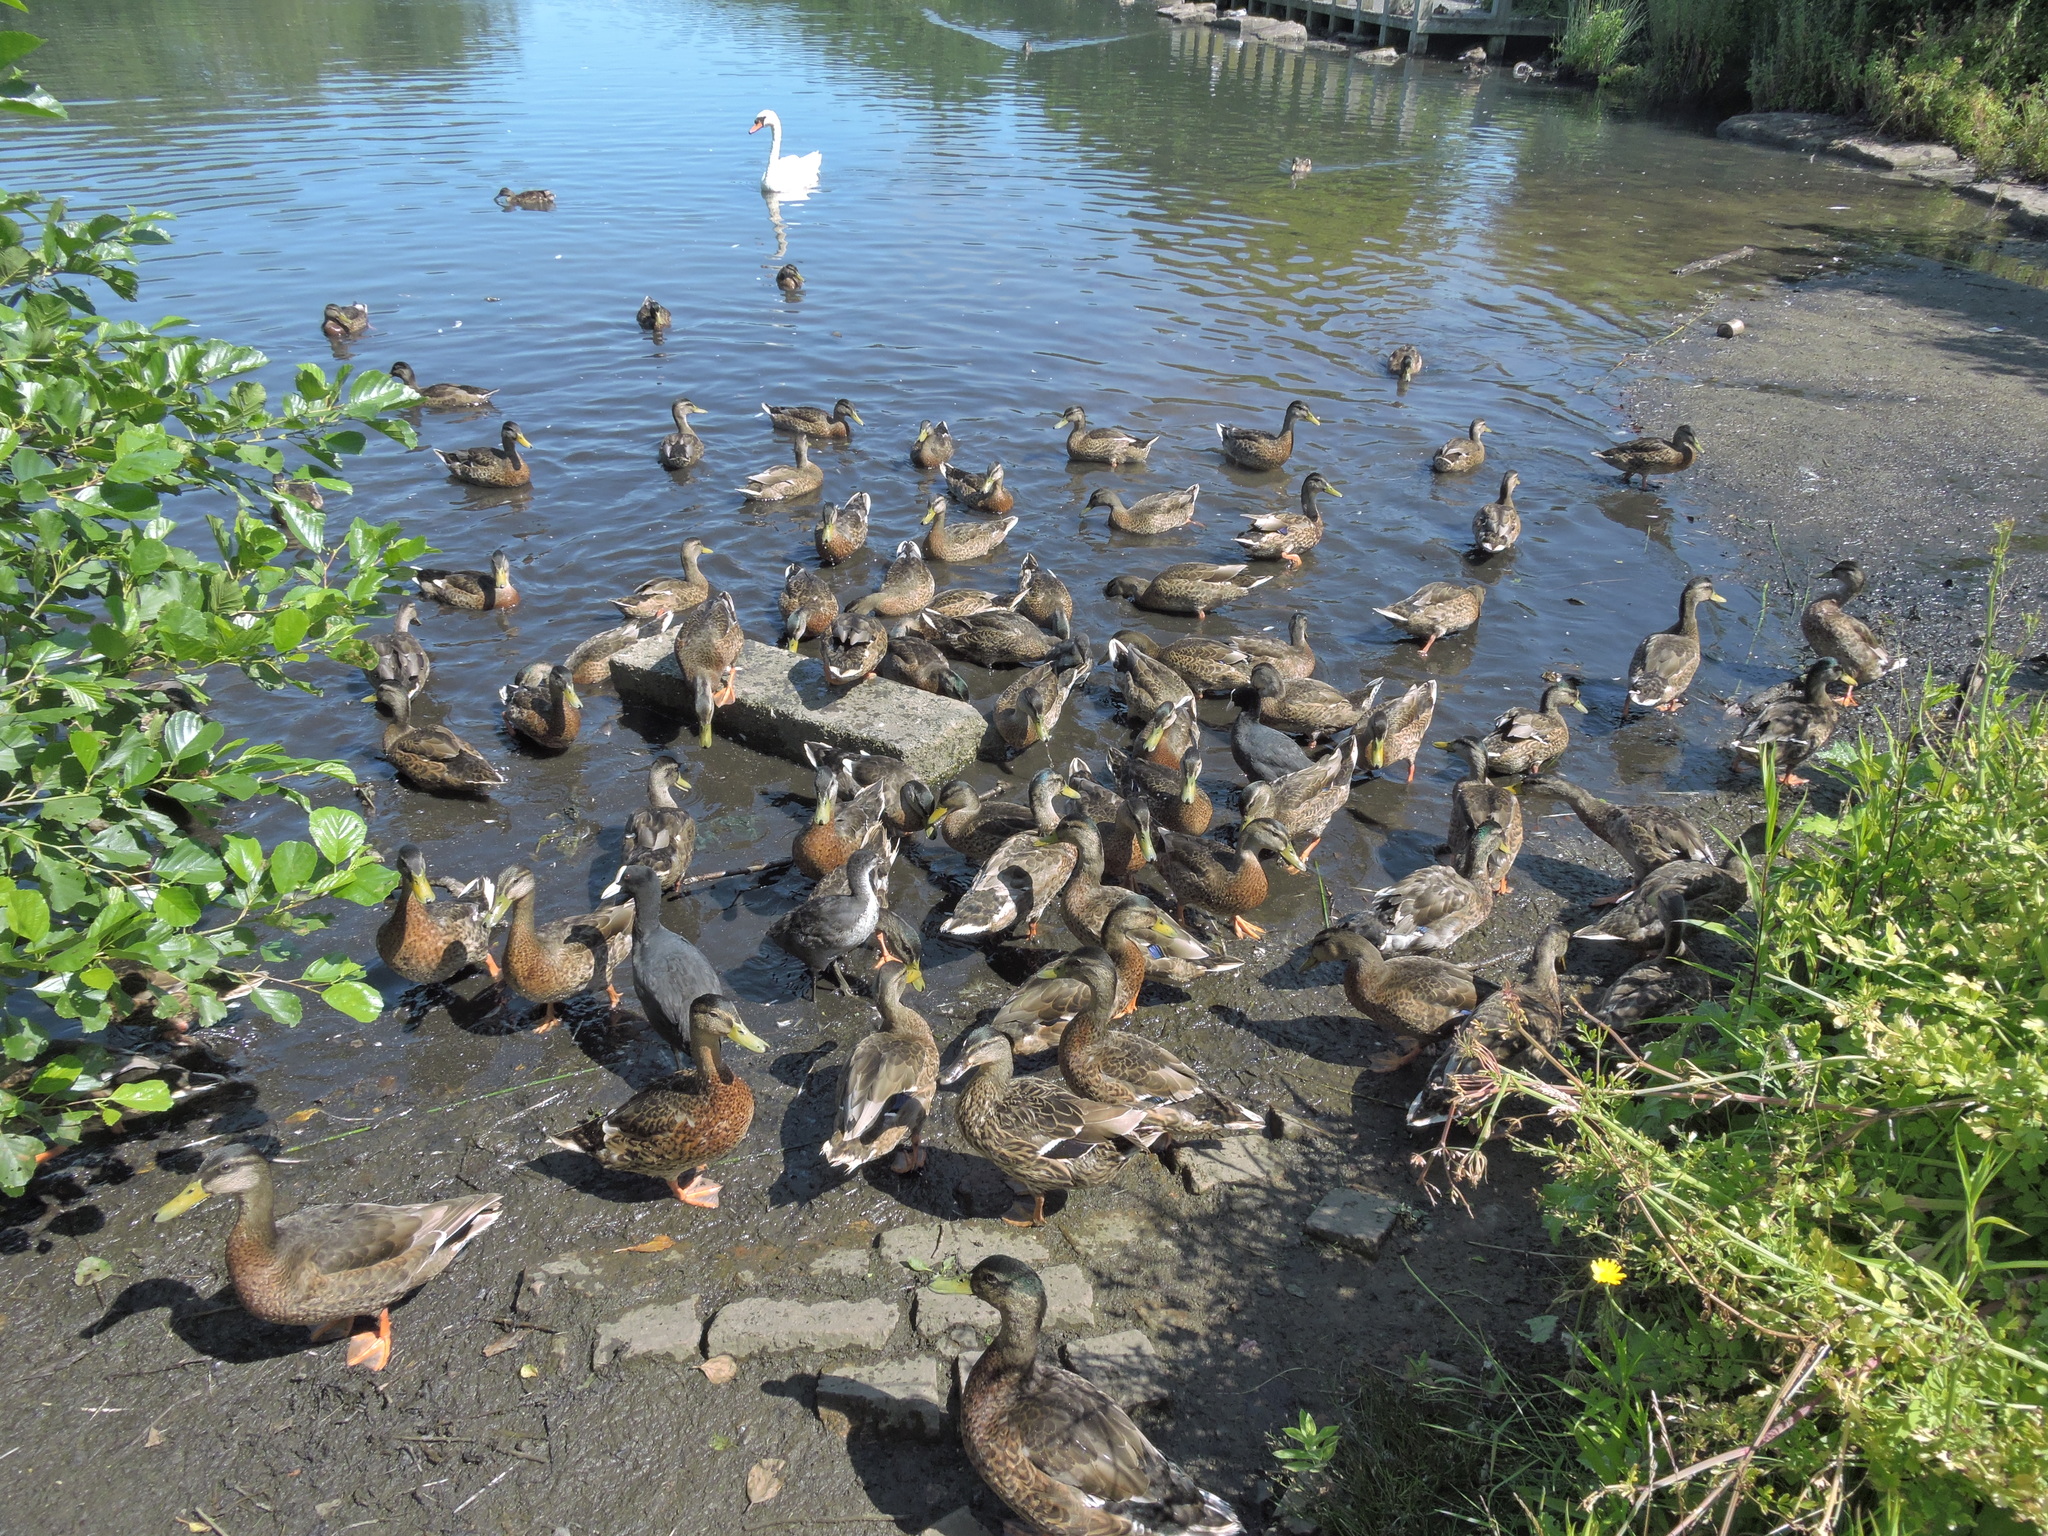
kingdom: Animalia
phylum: Chordata
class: Aves
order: Gruiformes
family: Rallidae
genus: Fulica
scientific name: Fulica atra
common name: Eurasian coot
